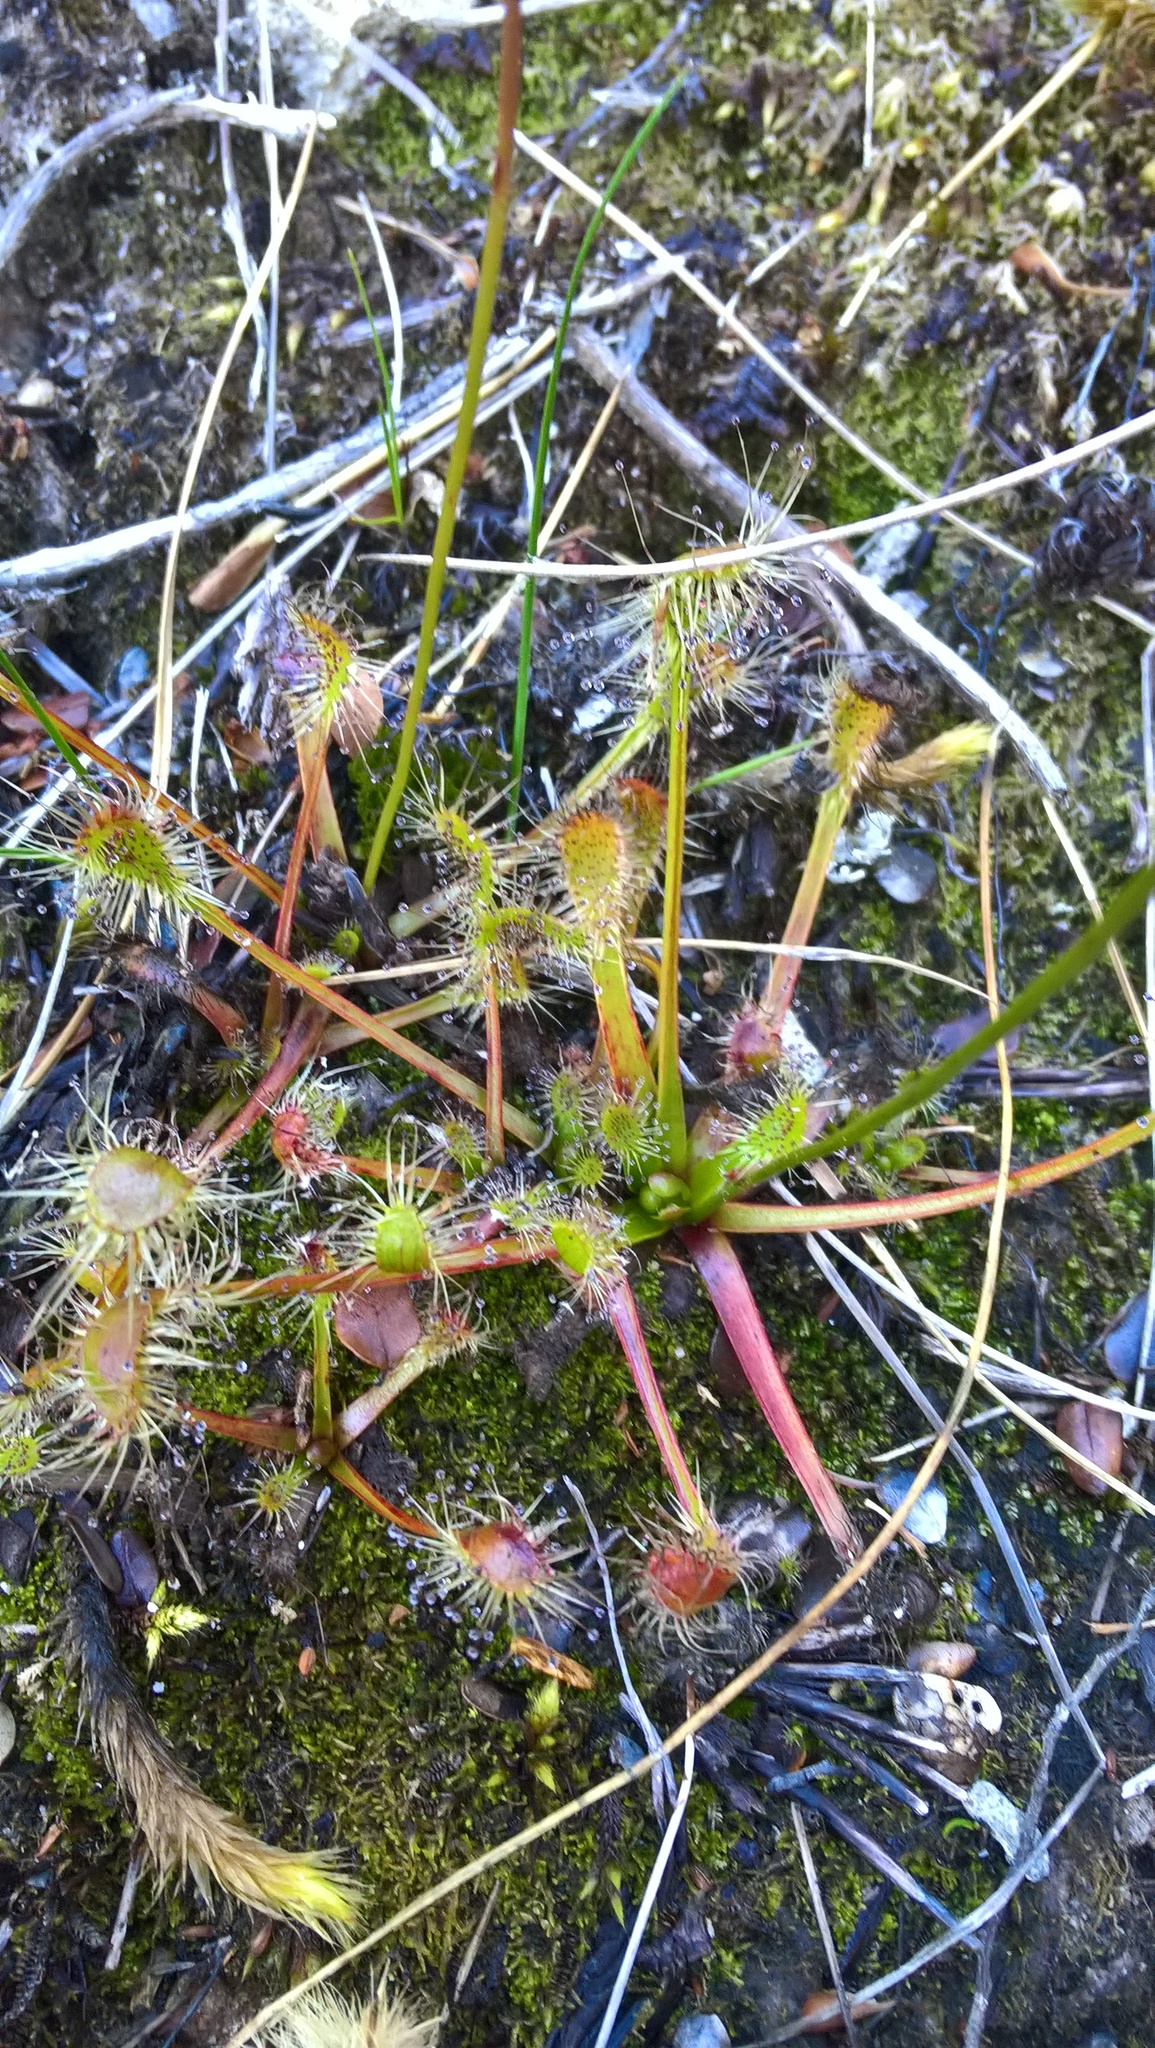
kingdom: Plantae
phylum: Tracheophyta
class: Magnoliopsida
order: Caryophyllales
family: Droseraceae
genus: Drosera
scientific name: Drosera stenopetala
